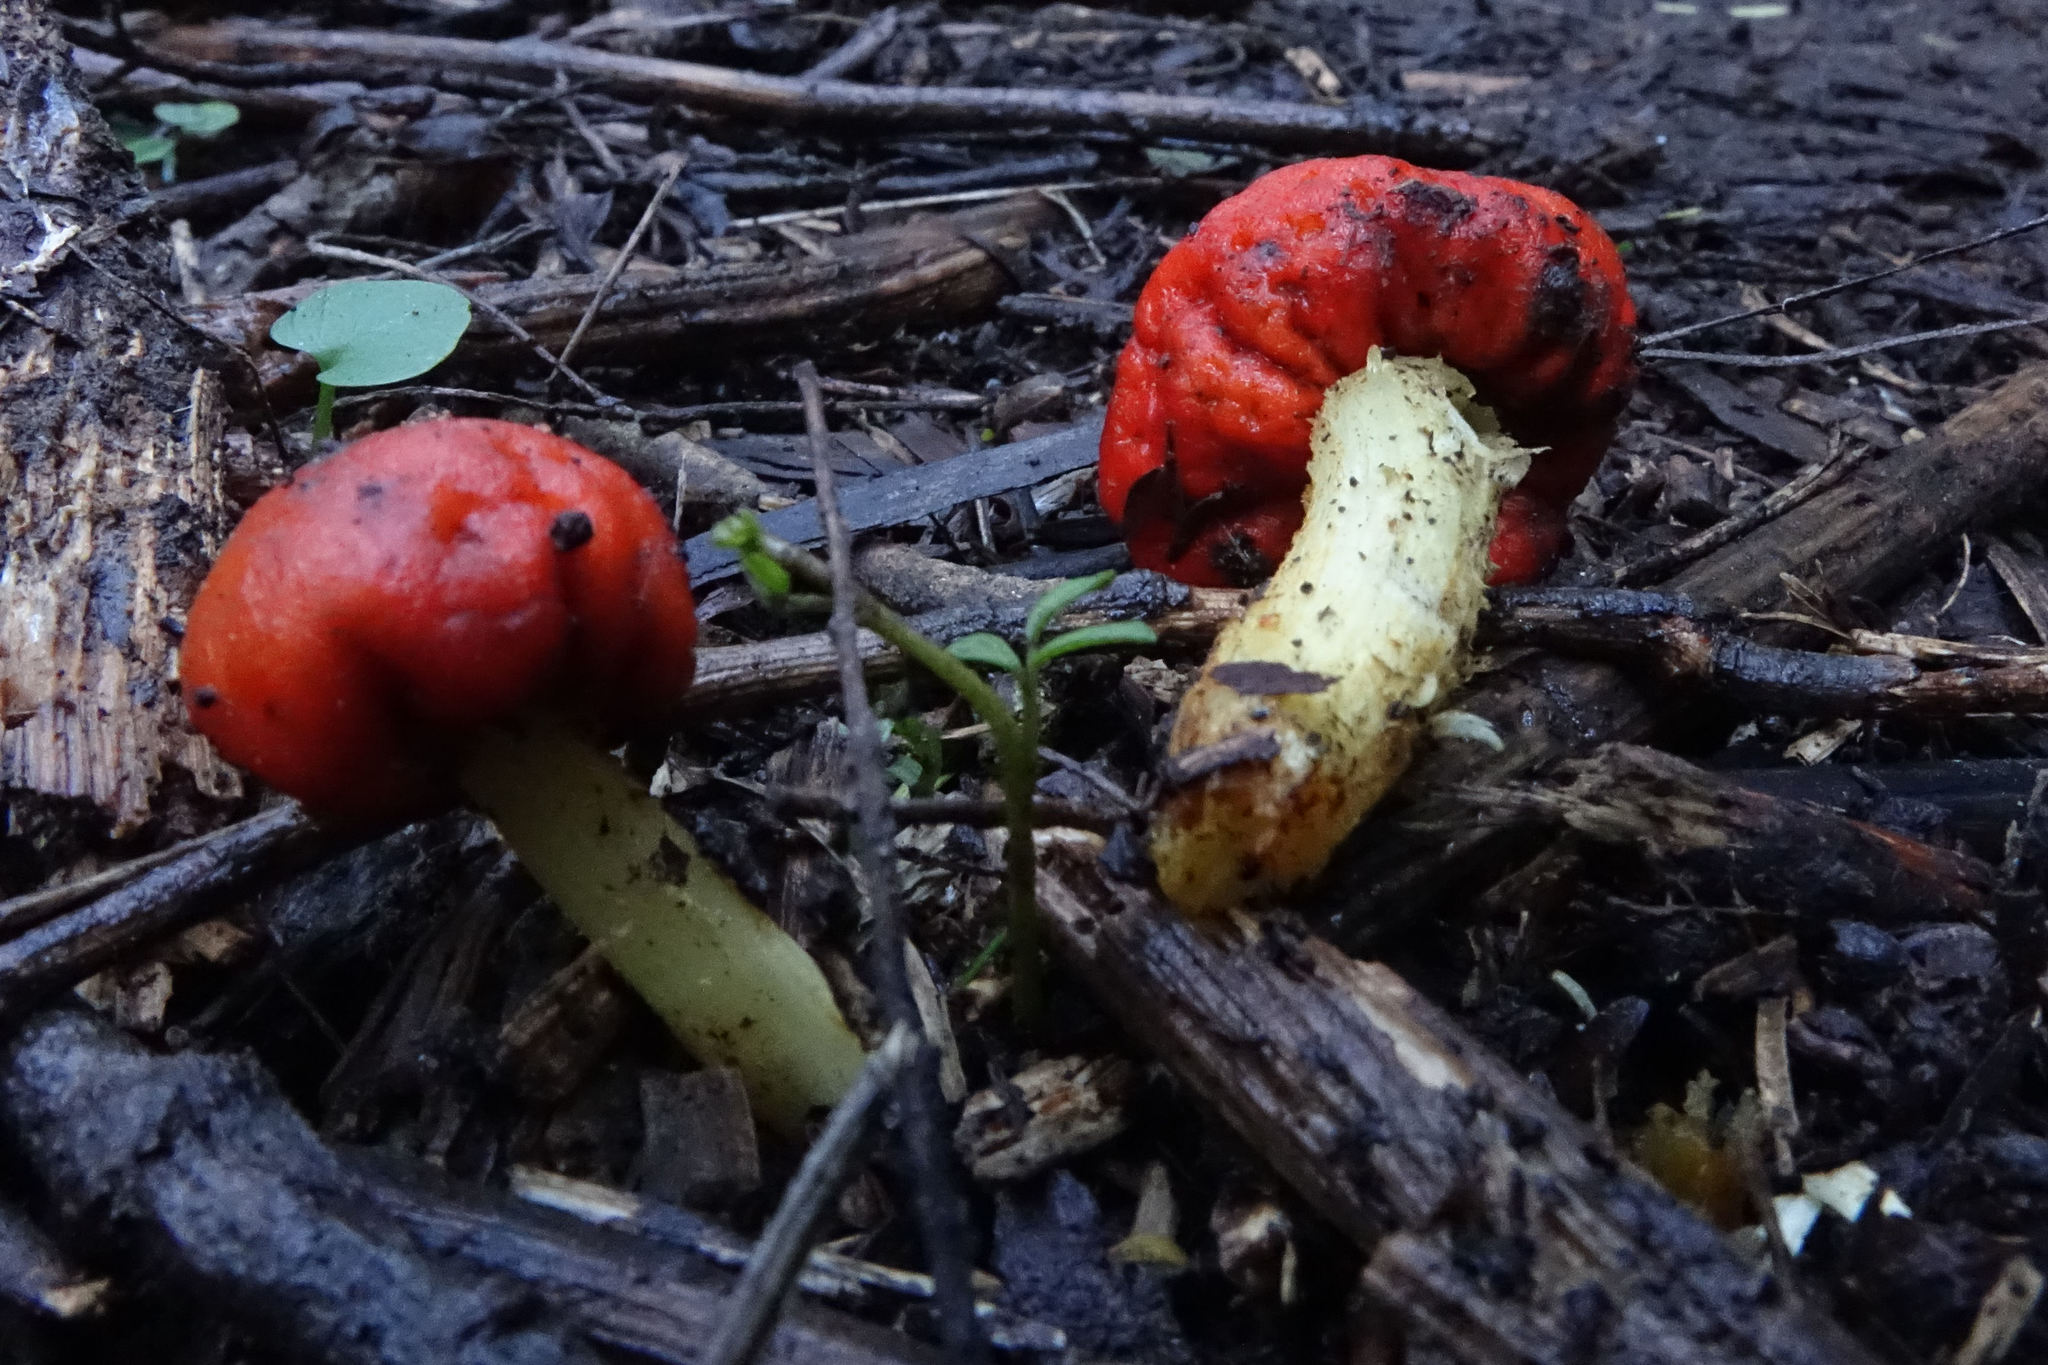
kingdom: Fungi
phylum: Basidiomycota
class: Agaricomycetes
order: Agaricales
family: Strophariaceae
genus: Leratiomyces
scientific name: Leratiomyces erythrocephalus
